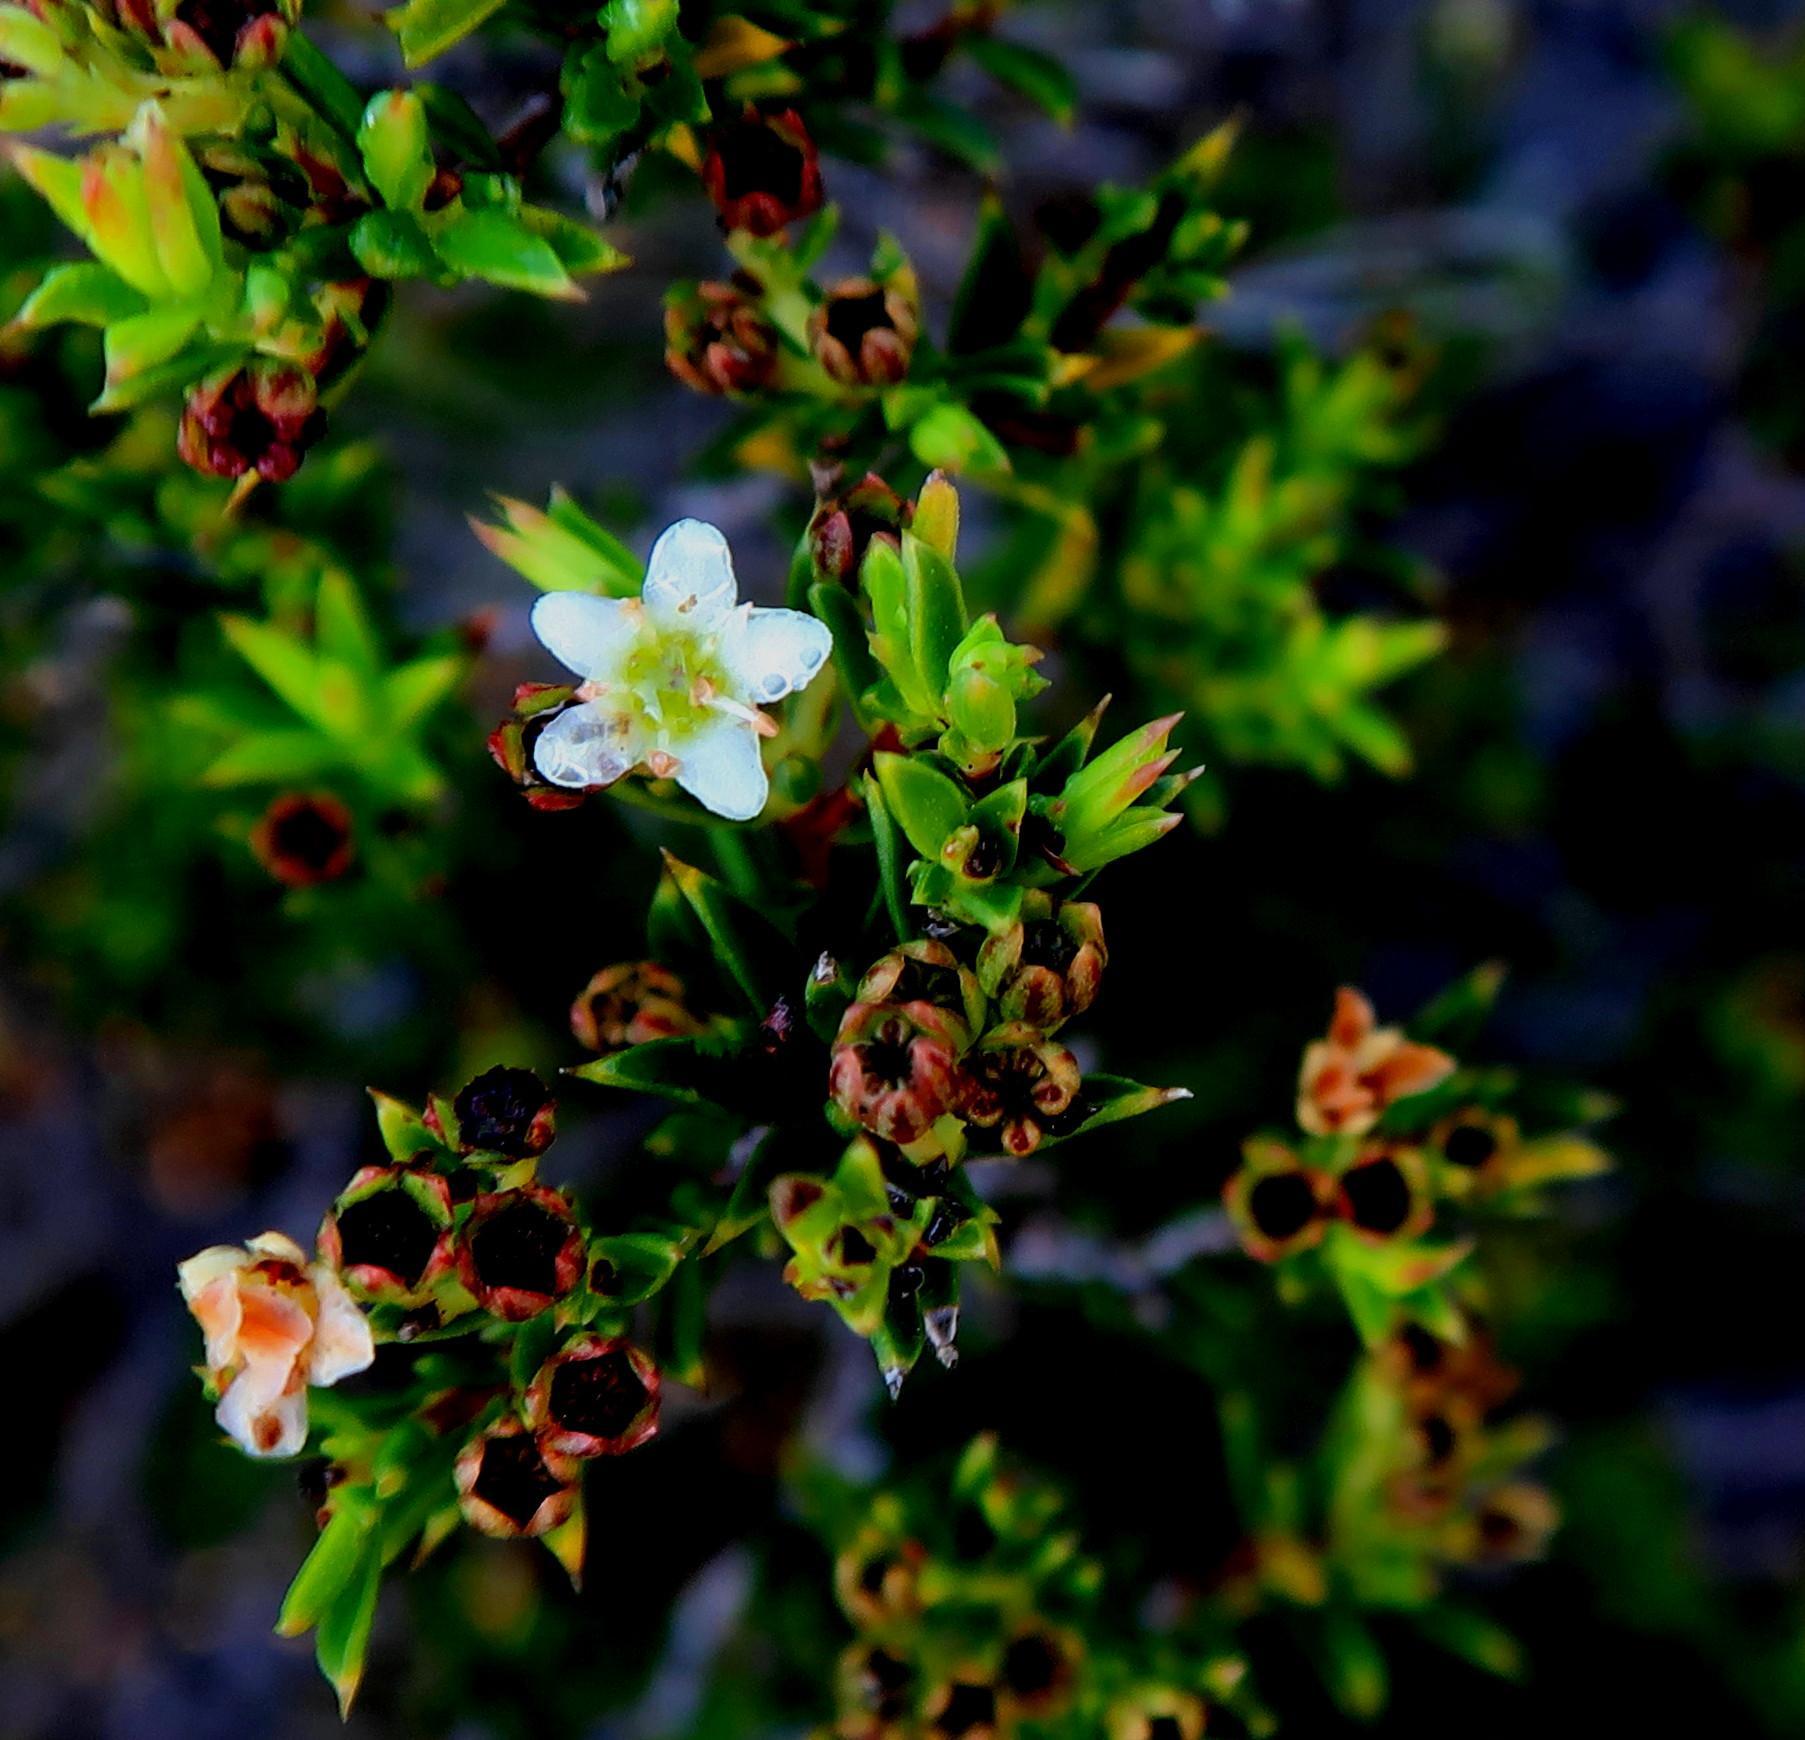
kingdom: Plantae
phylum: Tracheophyta
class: Magnoliopsida
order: Sapindales
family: Rutaceae
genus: Diosma
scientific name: Diosma aristata
